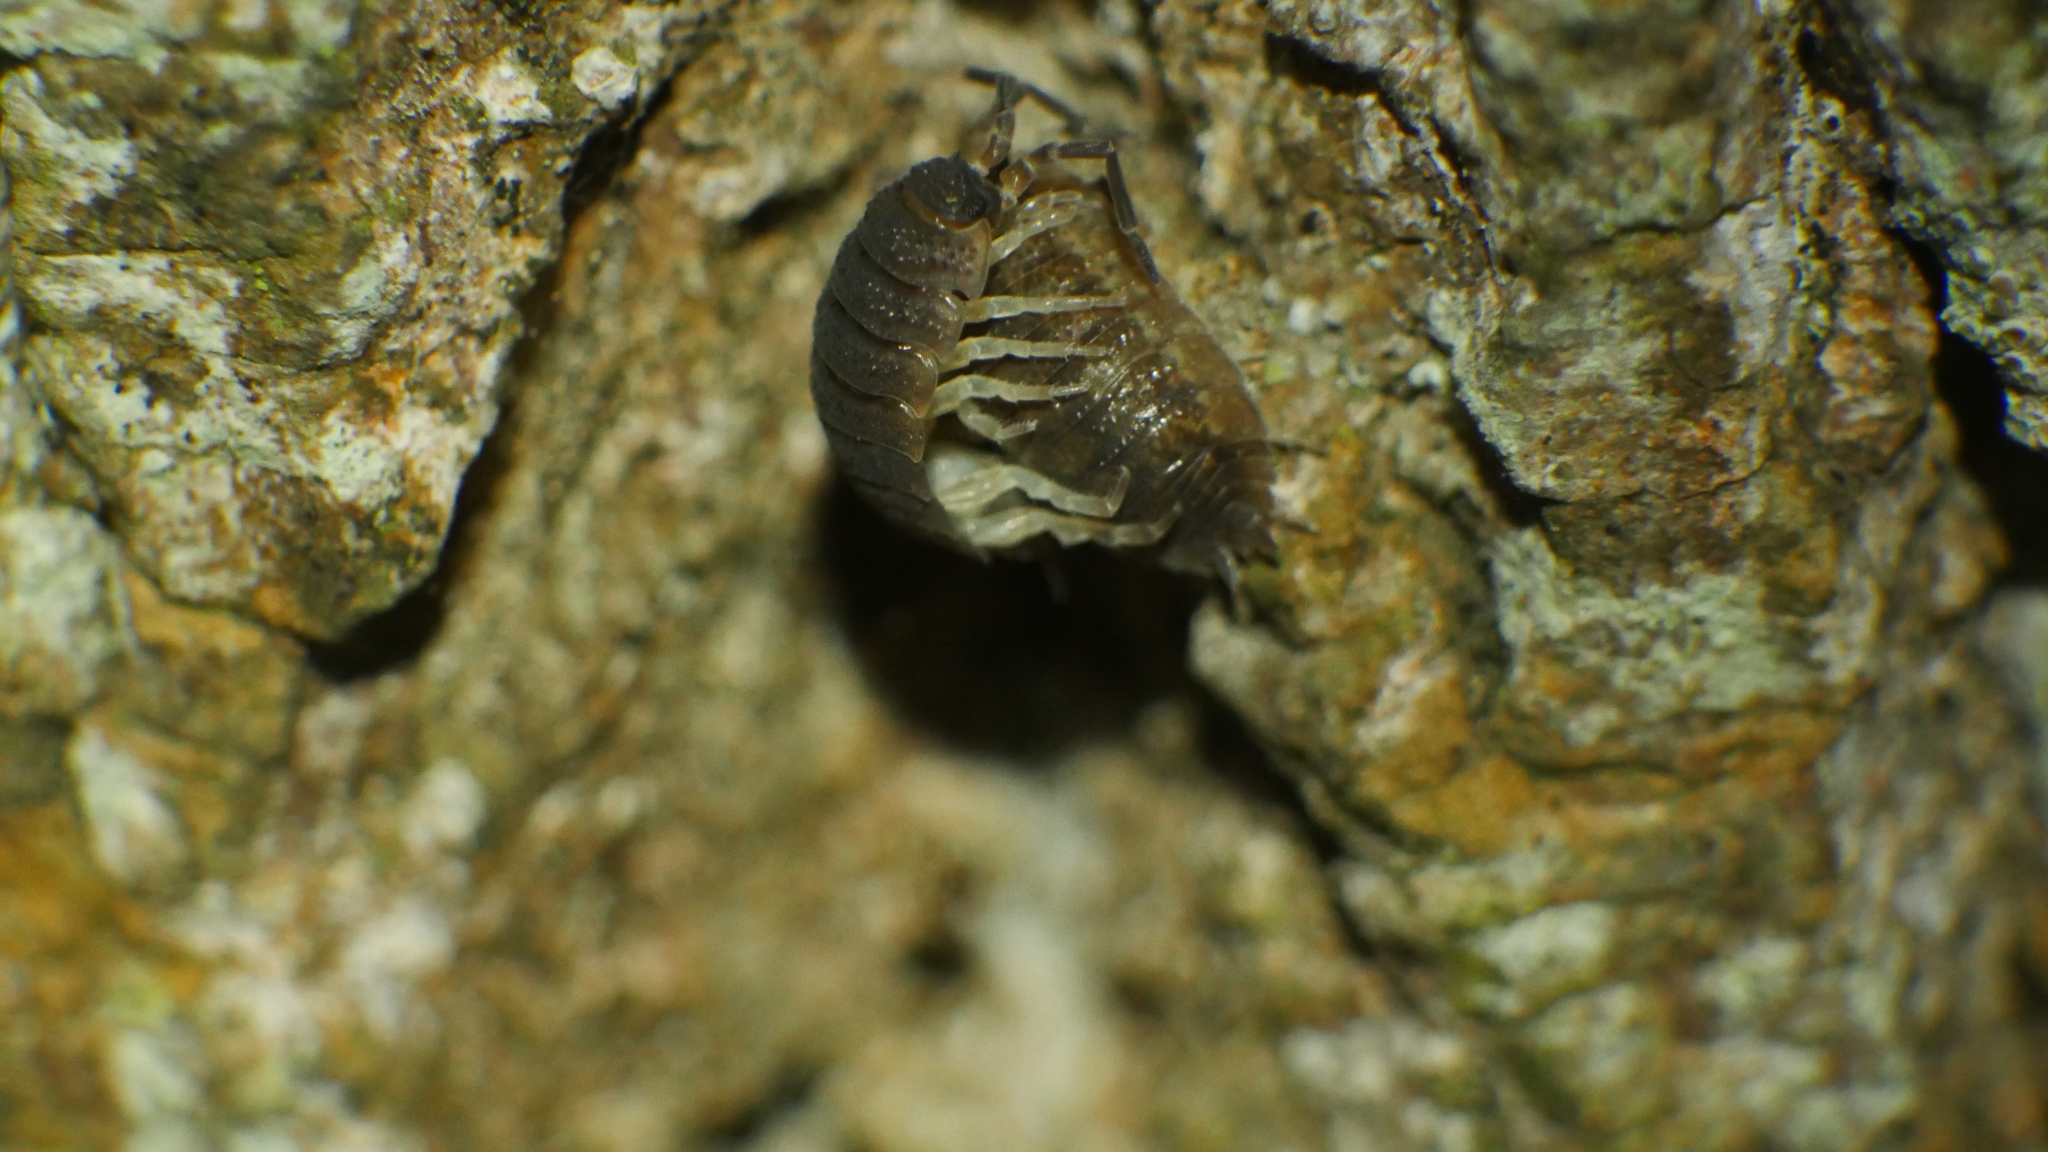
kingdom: Animalia
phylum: Arthropoda
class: Malacostraca
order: Isopoda
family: Porcellionidae
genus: Porcellio
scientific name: Porcellio scaber
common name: Common rough woodlouse
